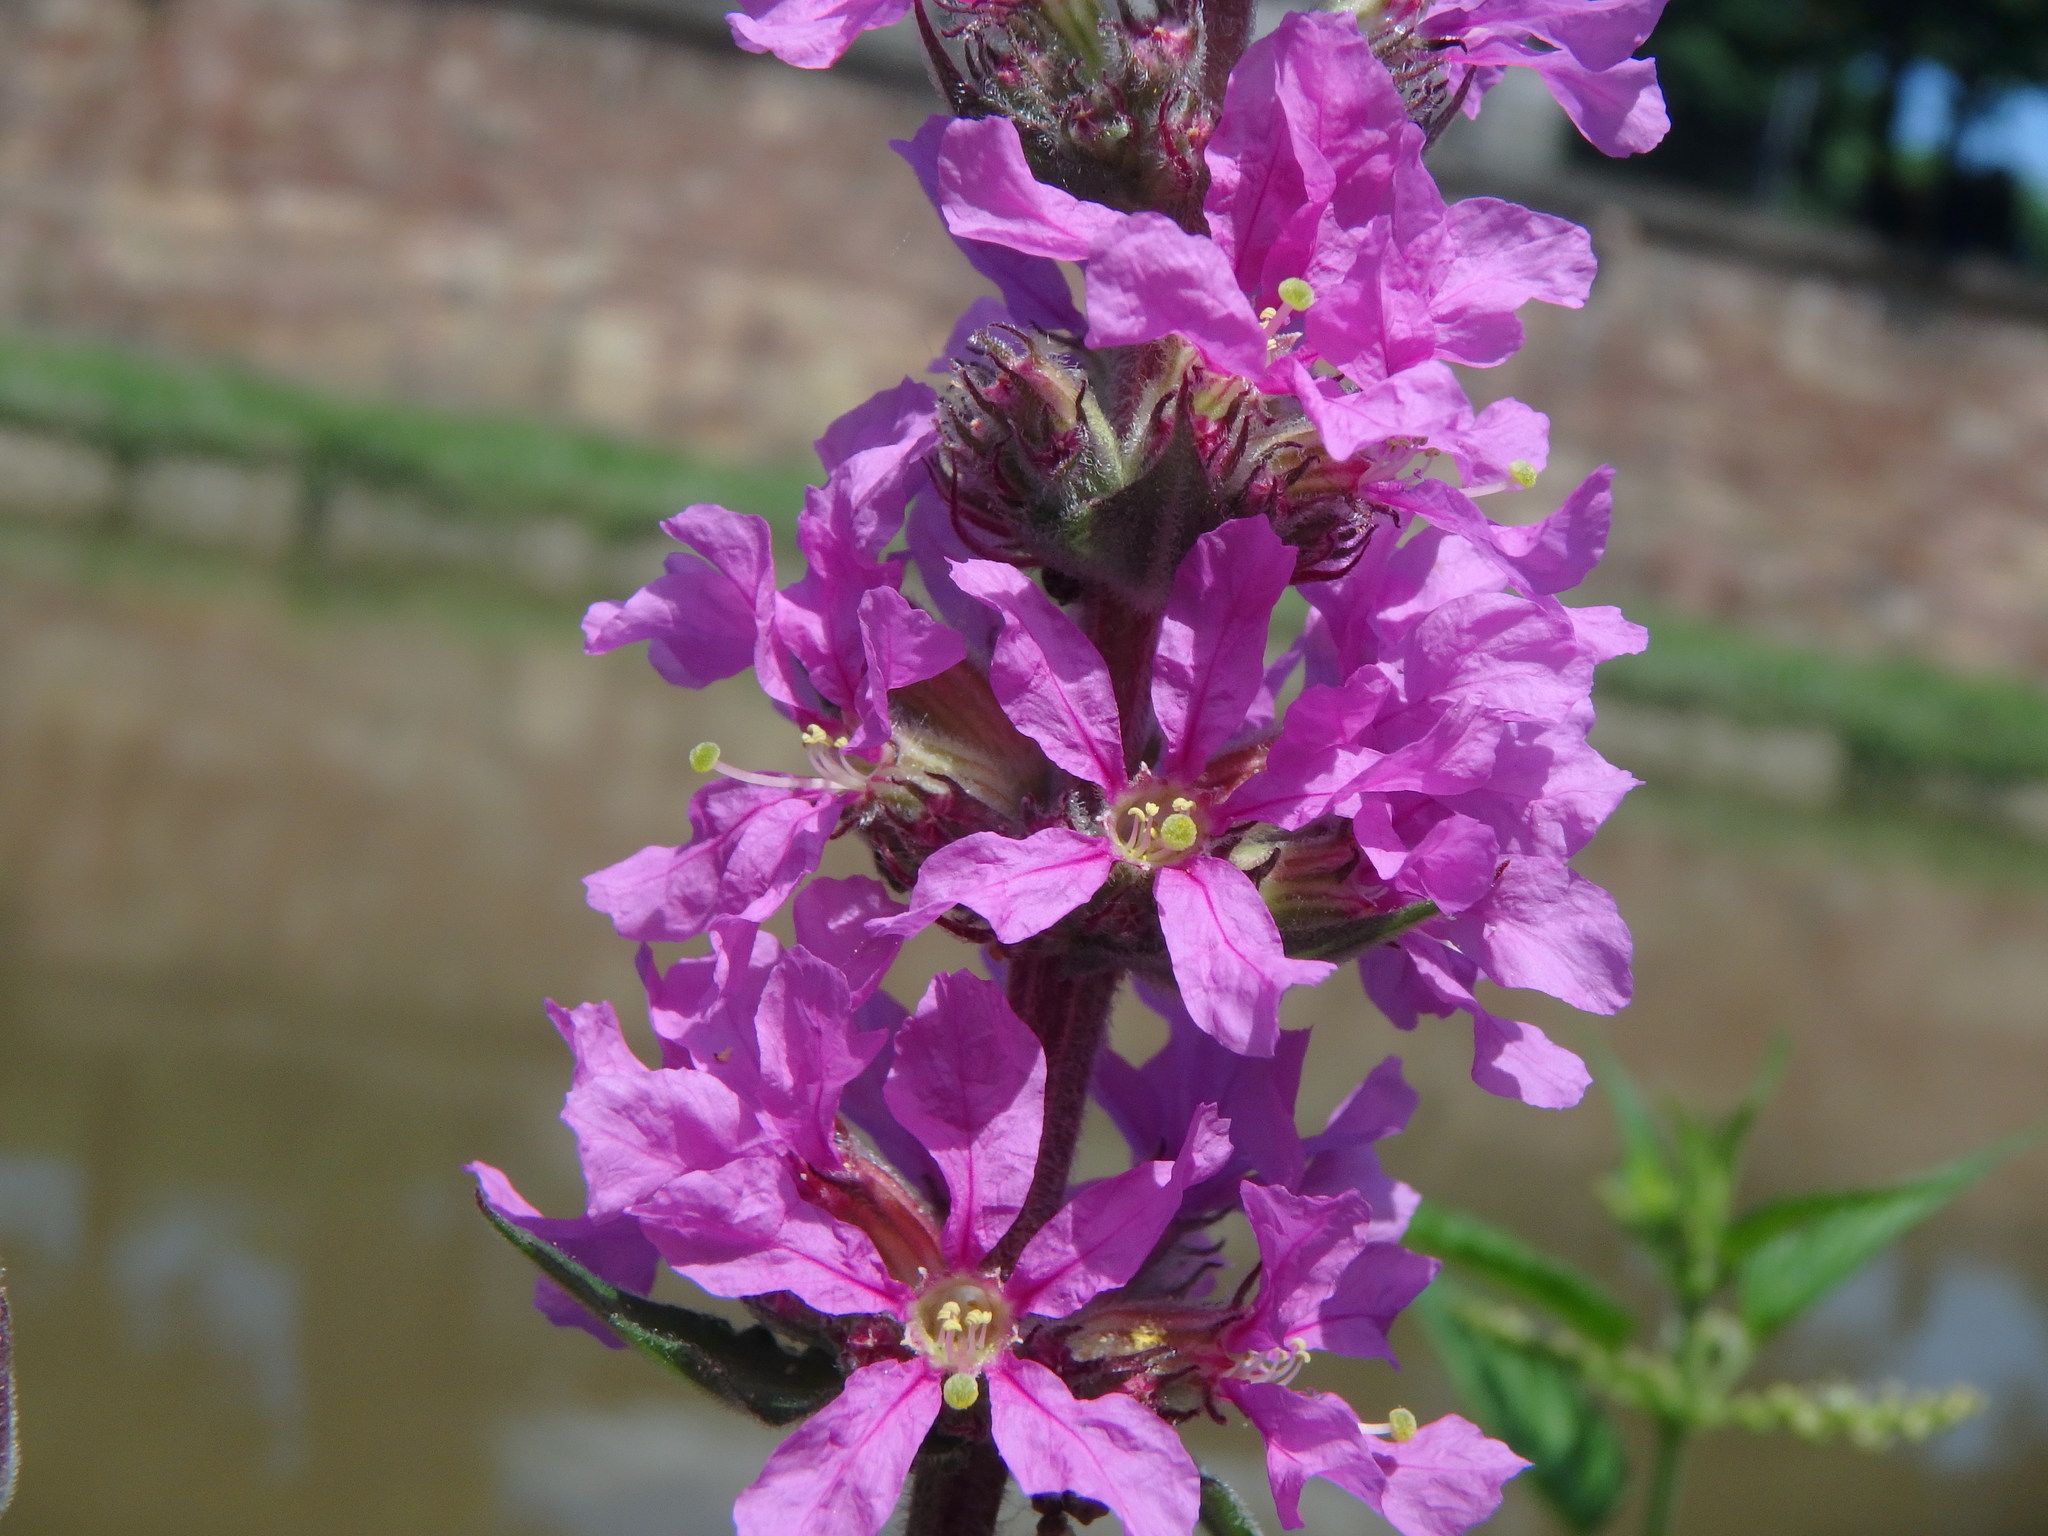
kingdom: Plantae
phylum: Tracheophyta
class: Magnoliopsida
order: Myrtales
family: Lythraceae
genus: Lythrum
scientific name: Lythrum salicaria
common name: Purple loosestrife
